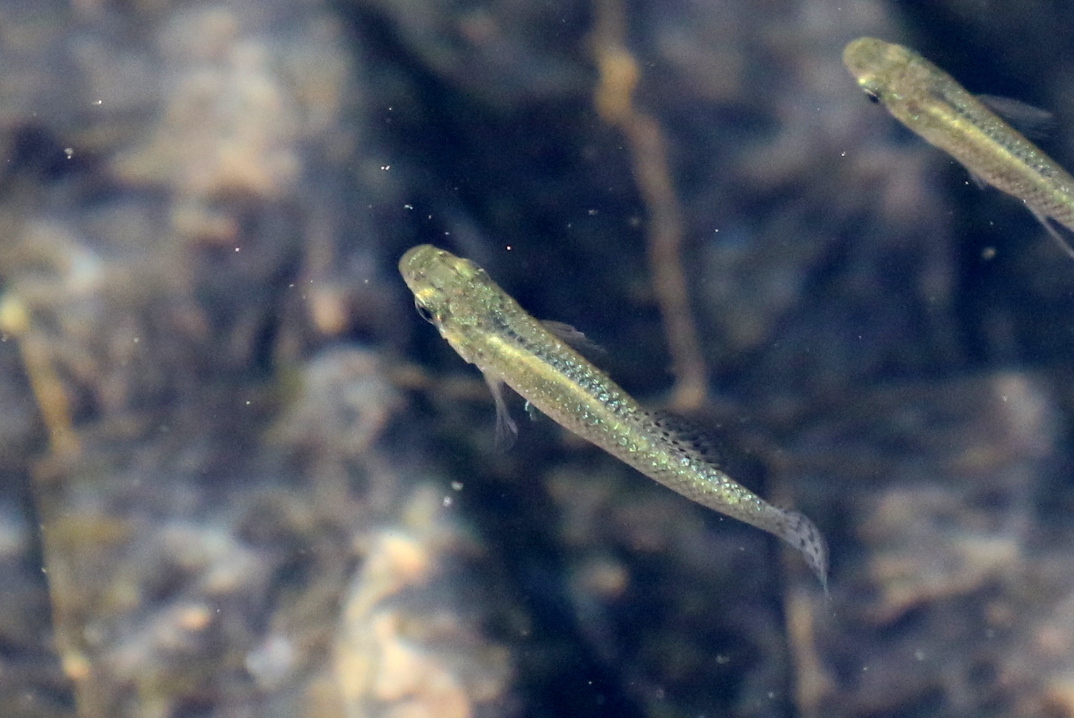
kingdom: Animalia
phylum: Chordata
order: Cyprinodontiformes
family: Poeciliidae
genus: Gambusia
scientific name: Gambusia holbrooki
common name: Eastern mosquitofish
